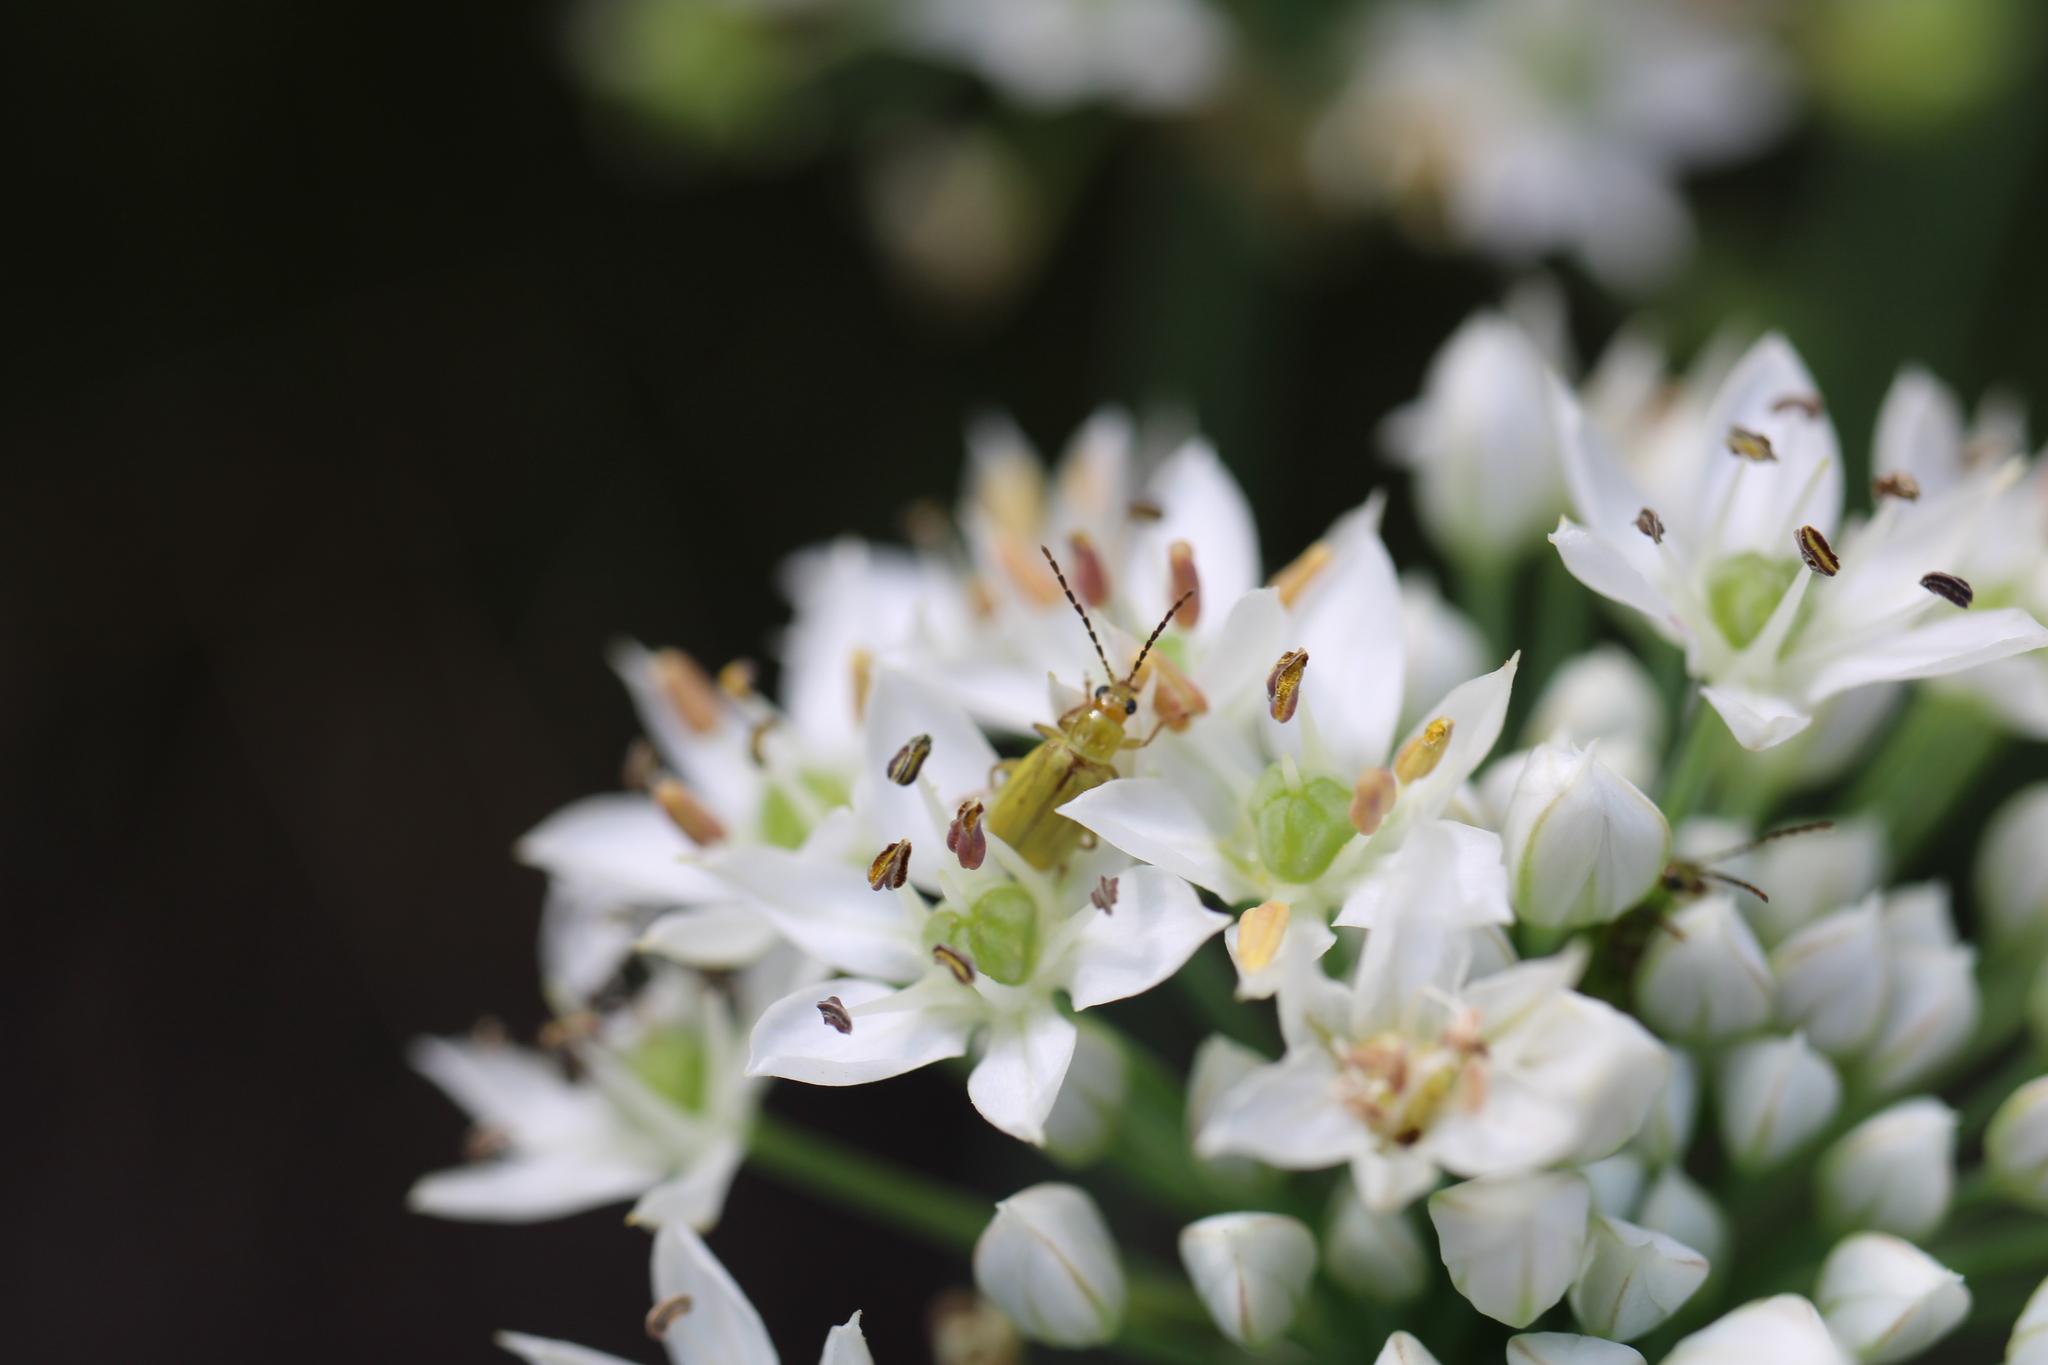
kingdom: Animalia
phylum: Arthropoda
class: Insecta
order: Coleoptera
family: Chrysomelidae
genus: Diabrotica
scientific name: Diabrotica barberi
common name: Northern corn rootworm
